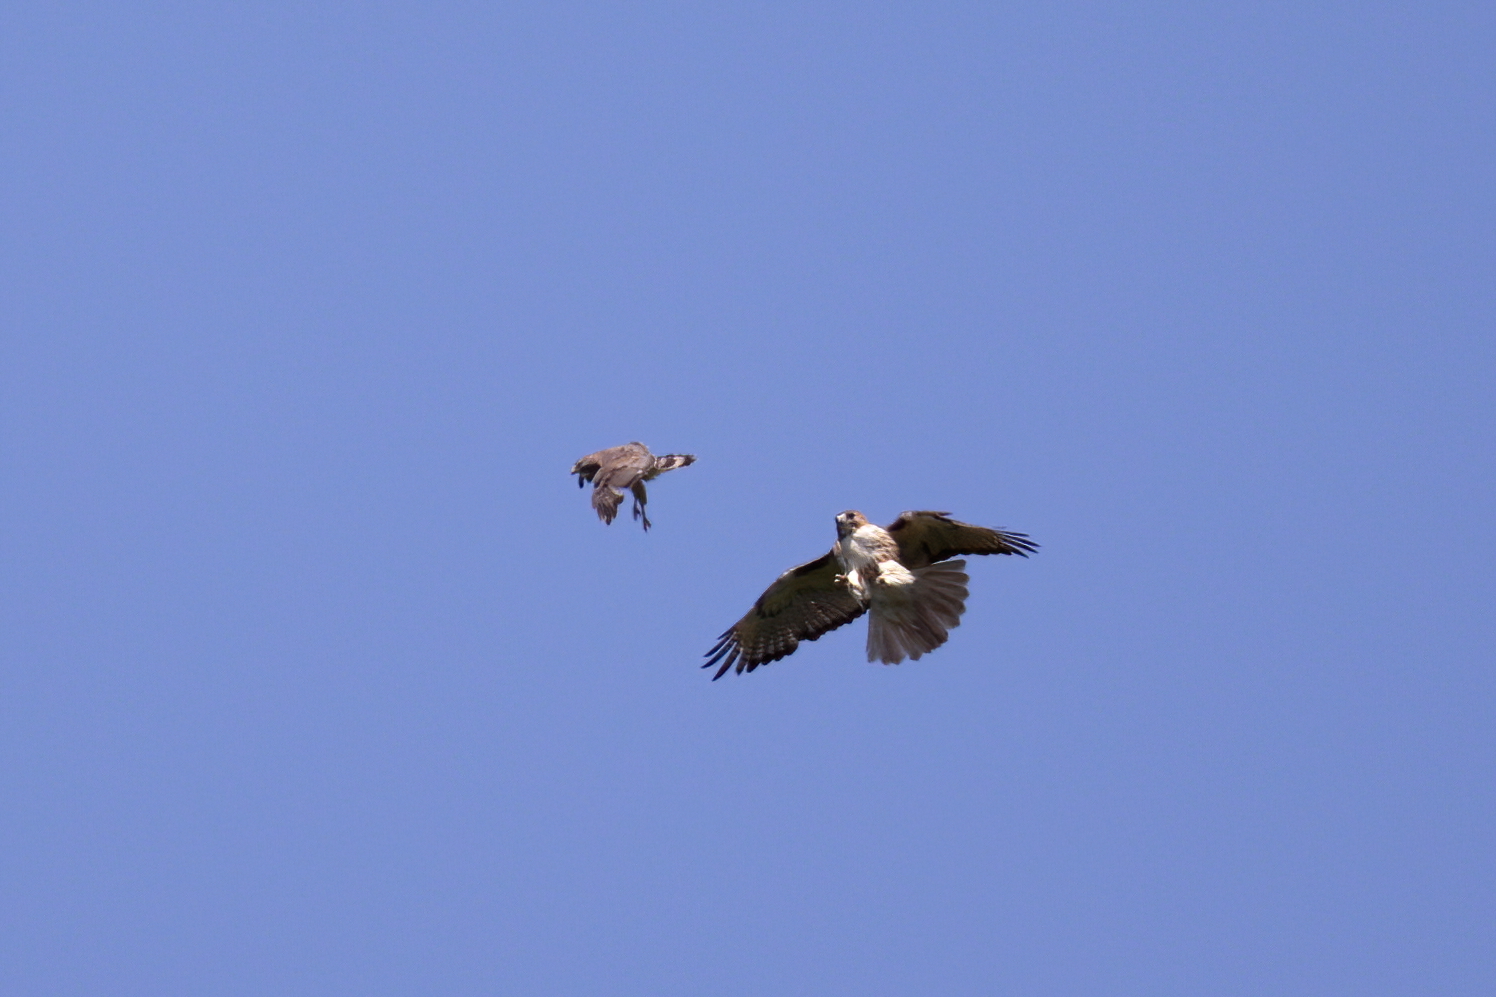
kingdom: Animalia
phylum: Chordata
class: Aves
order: Accipitriformes
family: Accipitridae
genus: Buteo
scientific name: Buteo jamaicensis
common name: Red-tailed hawk
